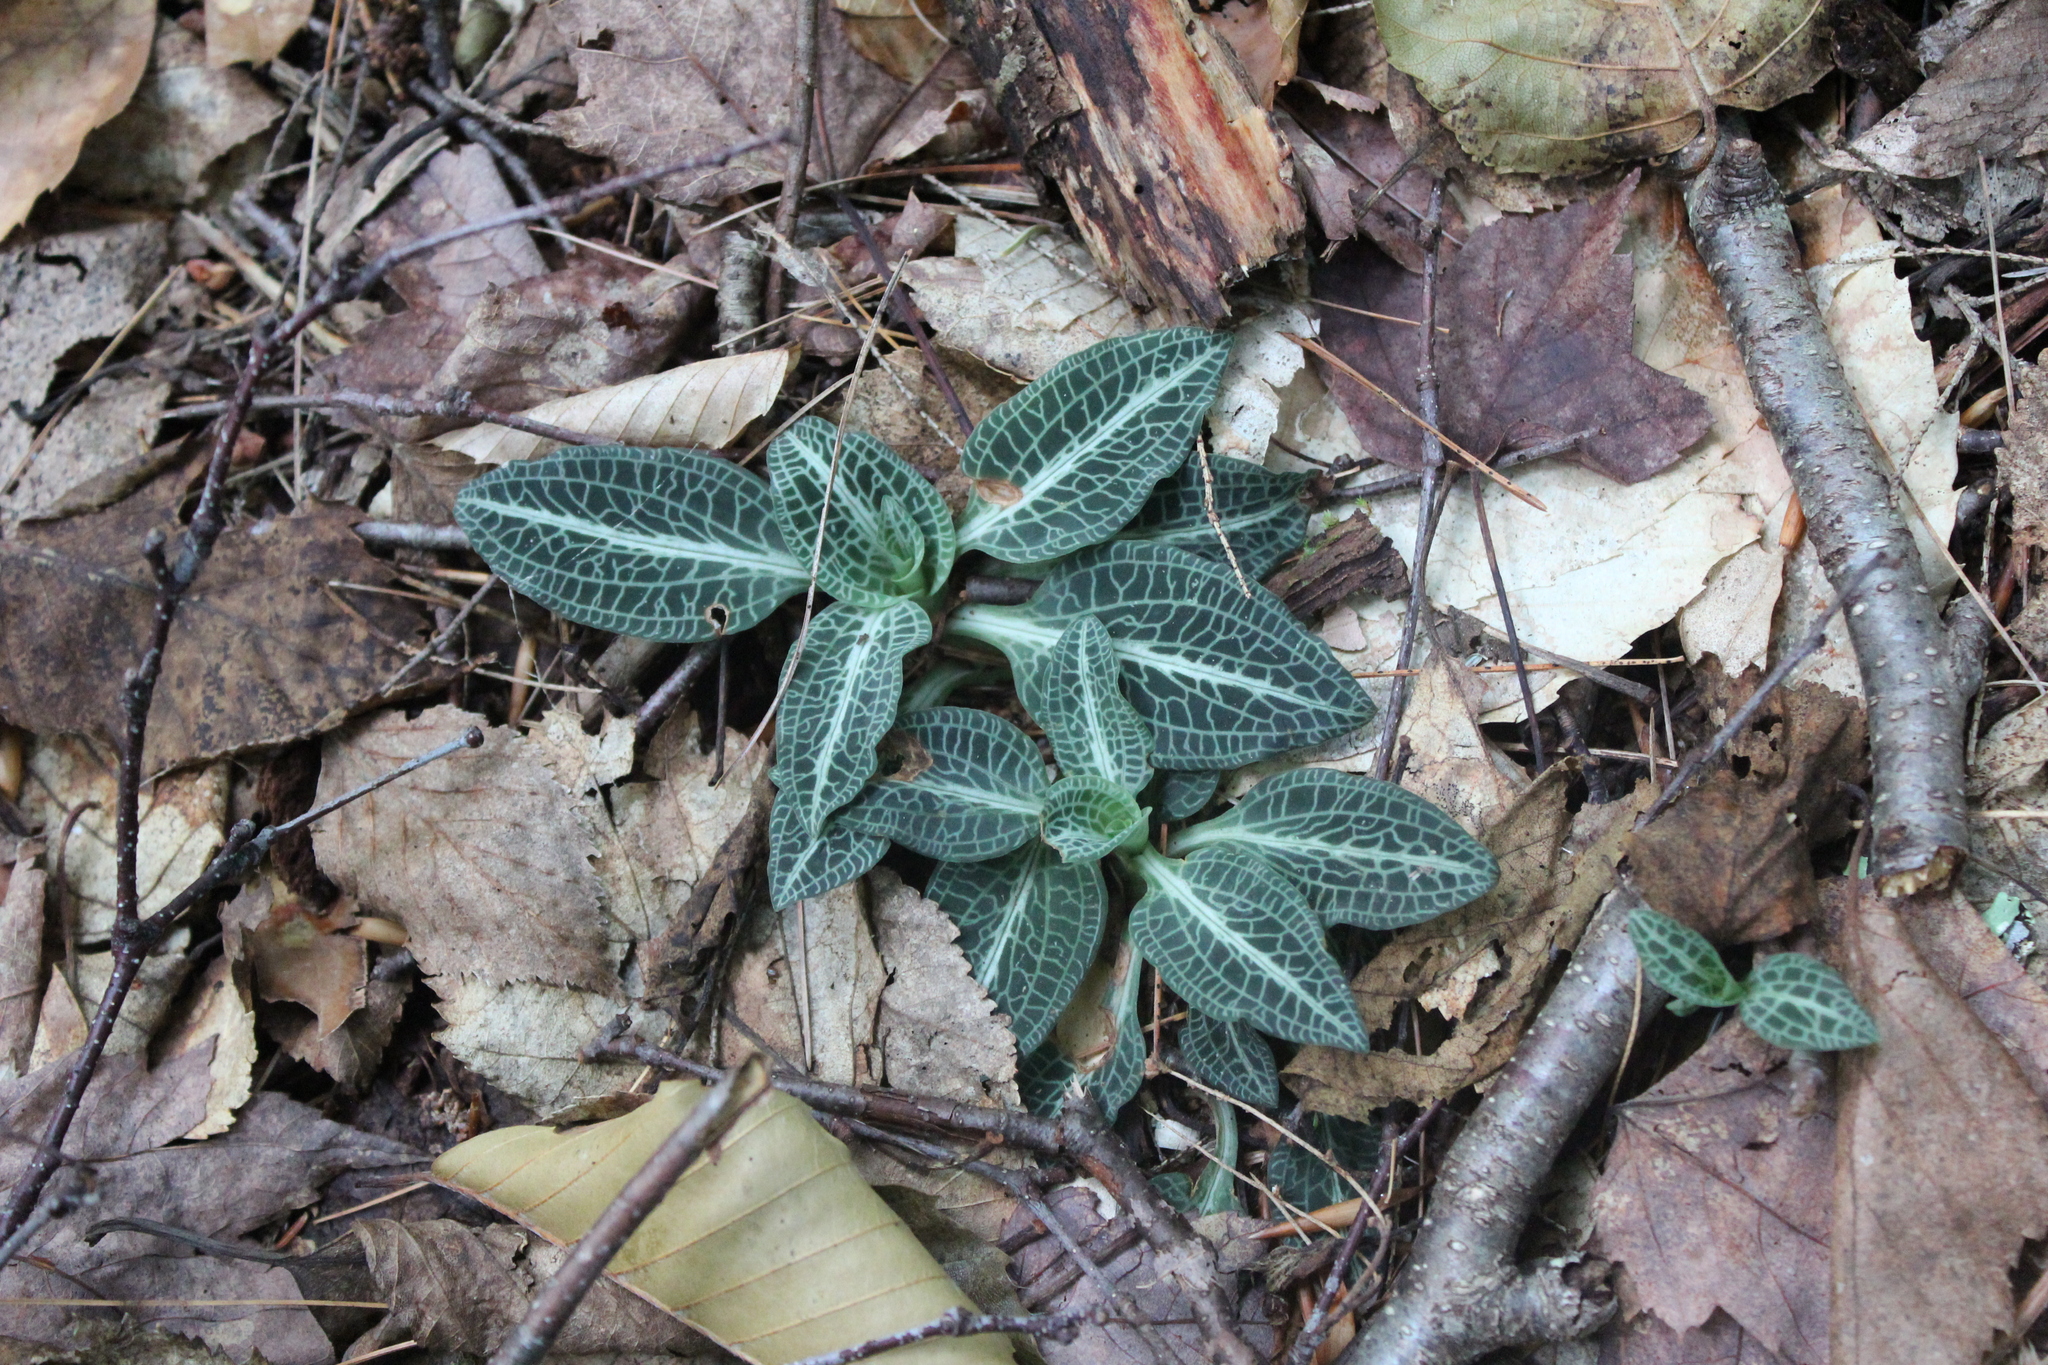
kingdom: Plantae
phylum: Tracheophyta
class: Liliopsida
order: Asparagales
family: Orchidaceae
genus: Goodyera
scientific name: Goodyera pubescens
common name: Downy rattlesnake-plantain
